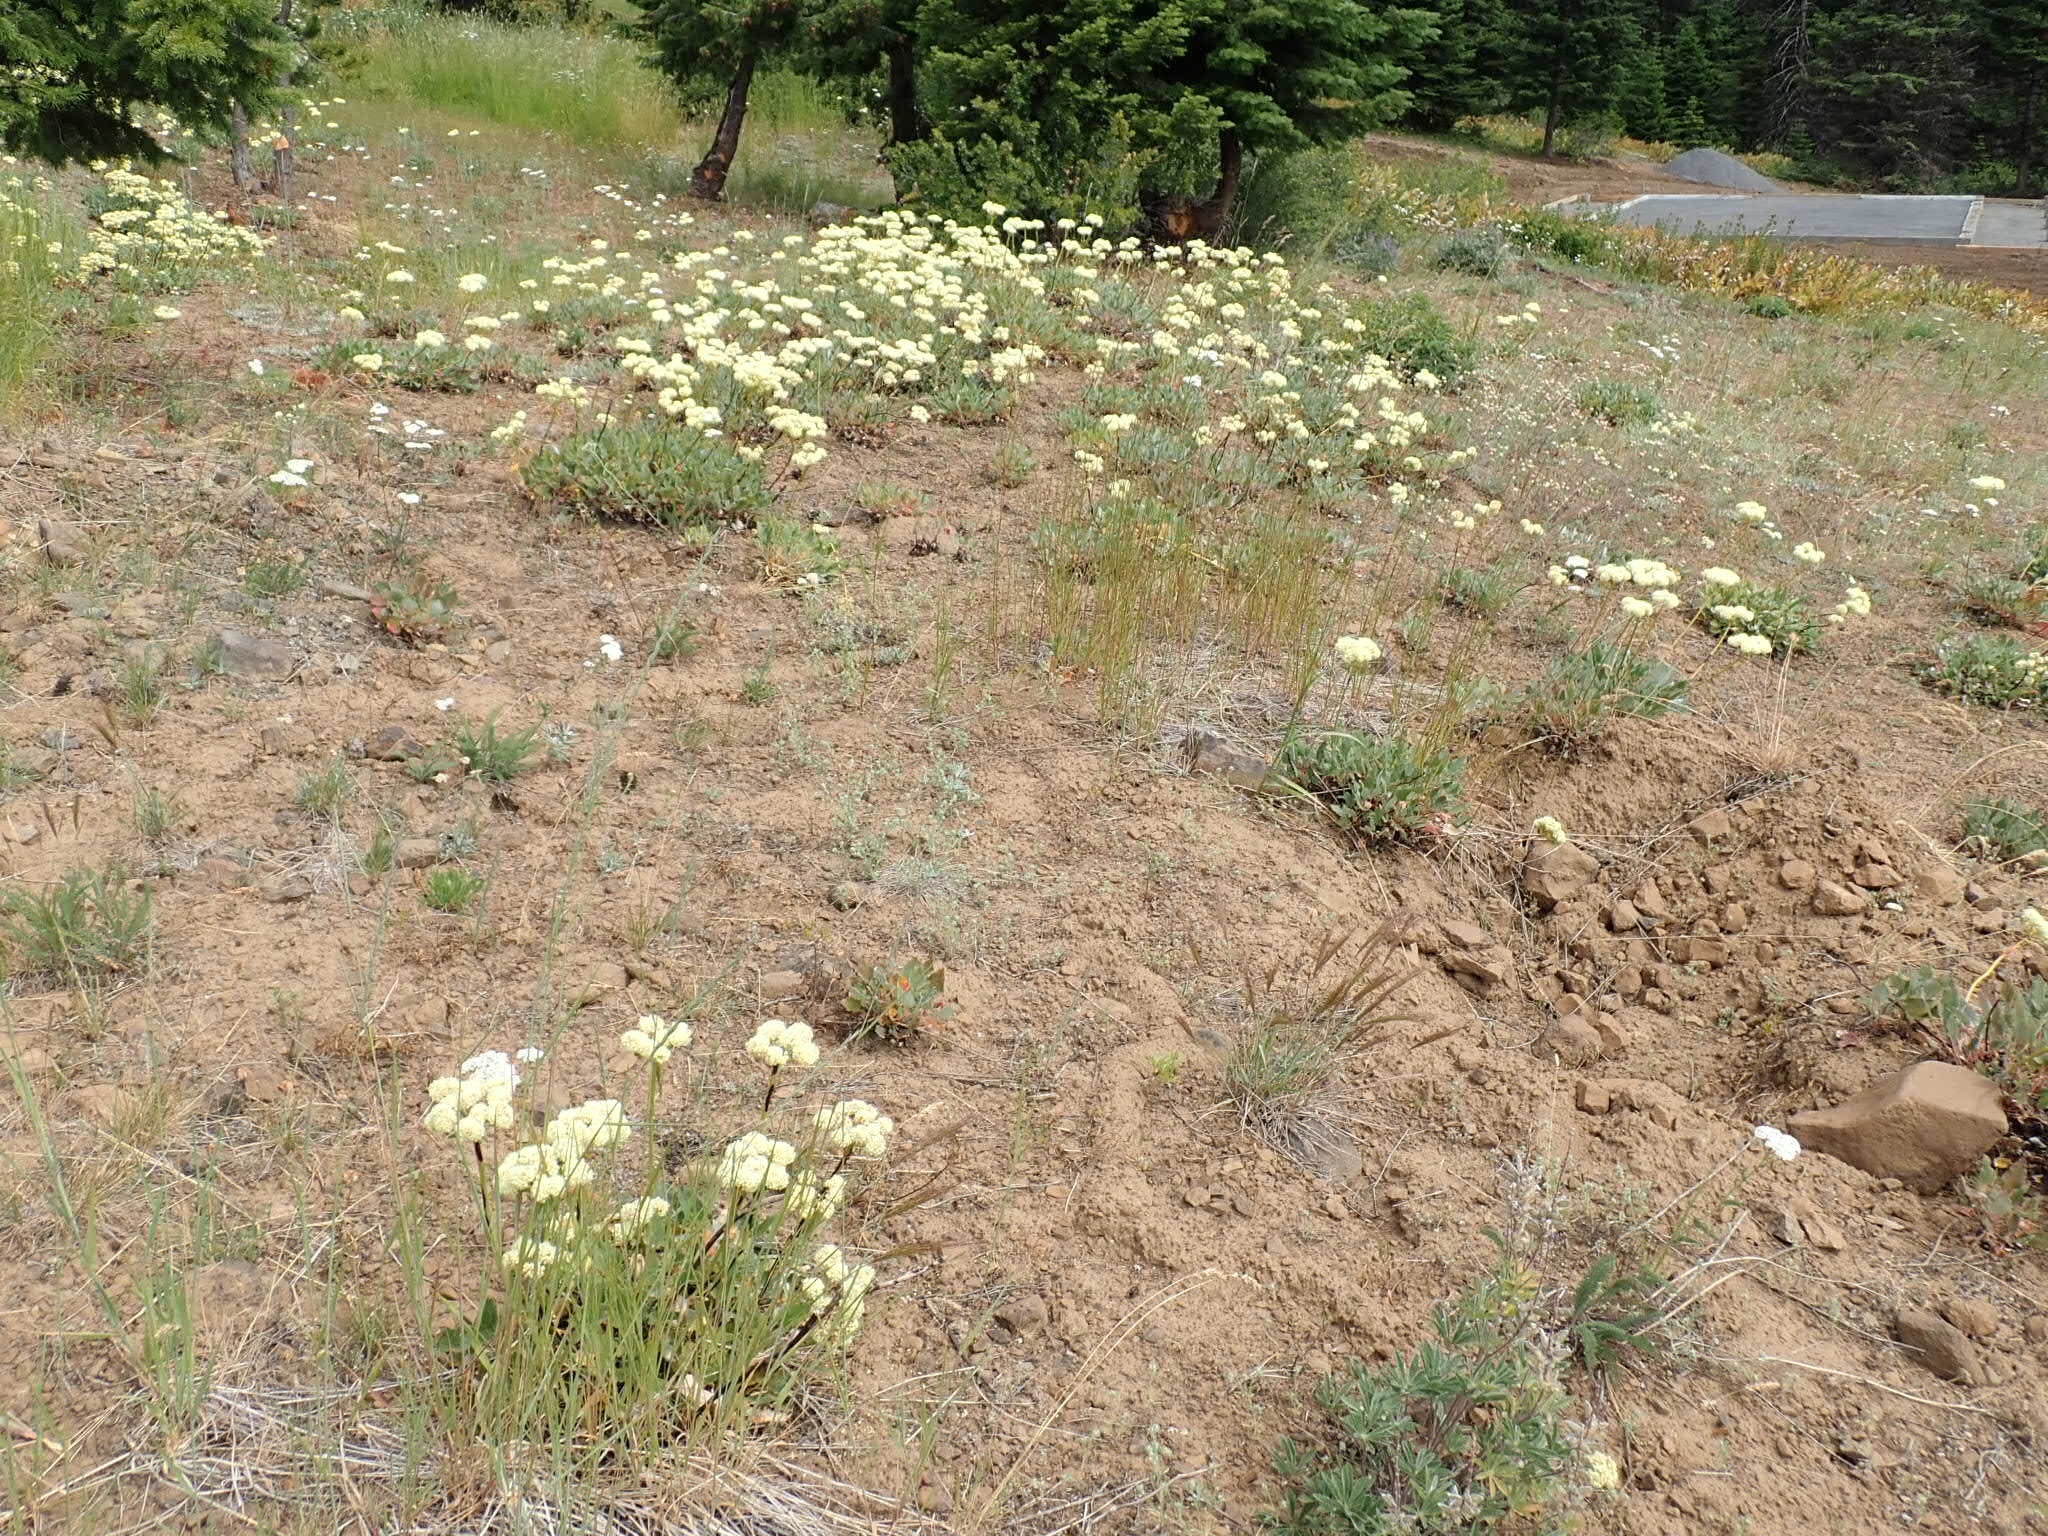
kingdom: Plantae
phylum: Tracheophyta
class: Magnoliopsida
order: Caryophyllales
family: Polygonaceae
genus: Eriogonum
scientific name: Eriogonum compositum
